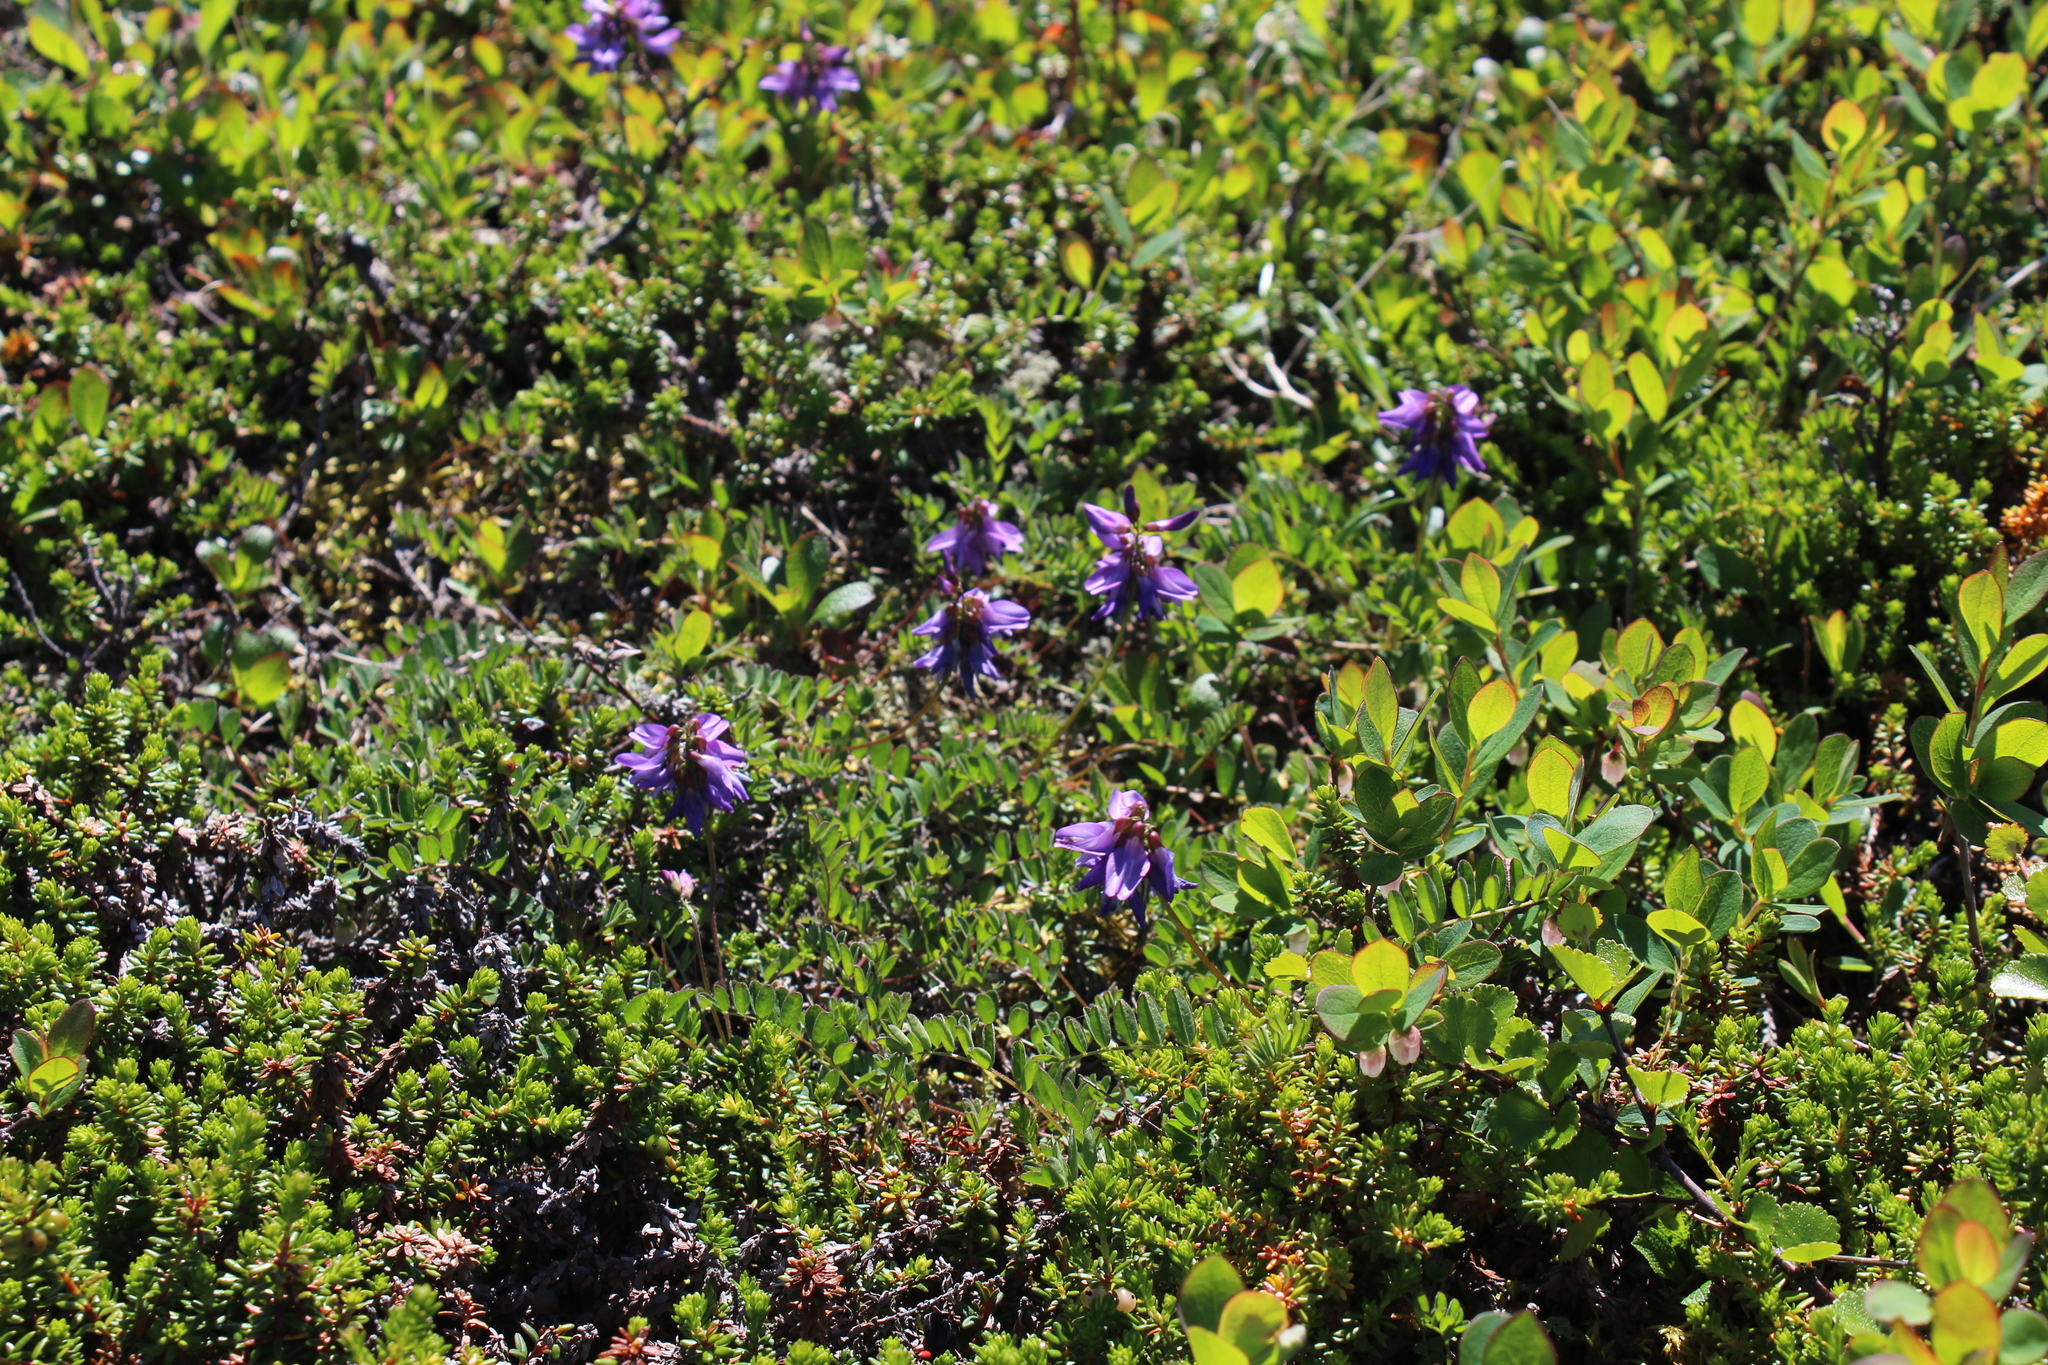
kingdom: Plantae
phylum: Tracheophyta
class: Magnoliopsida
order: Fabales
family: Fabaceae
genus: Astragalus
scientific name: Astragalus alpinus
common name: Alpine milk-vetch
